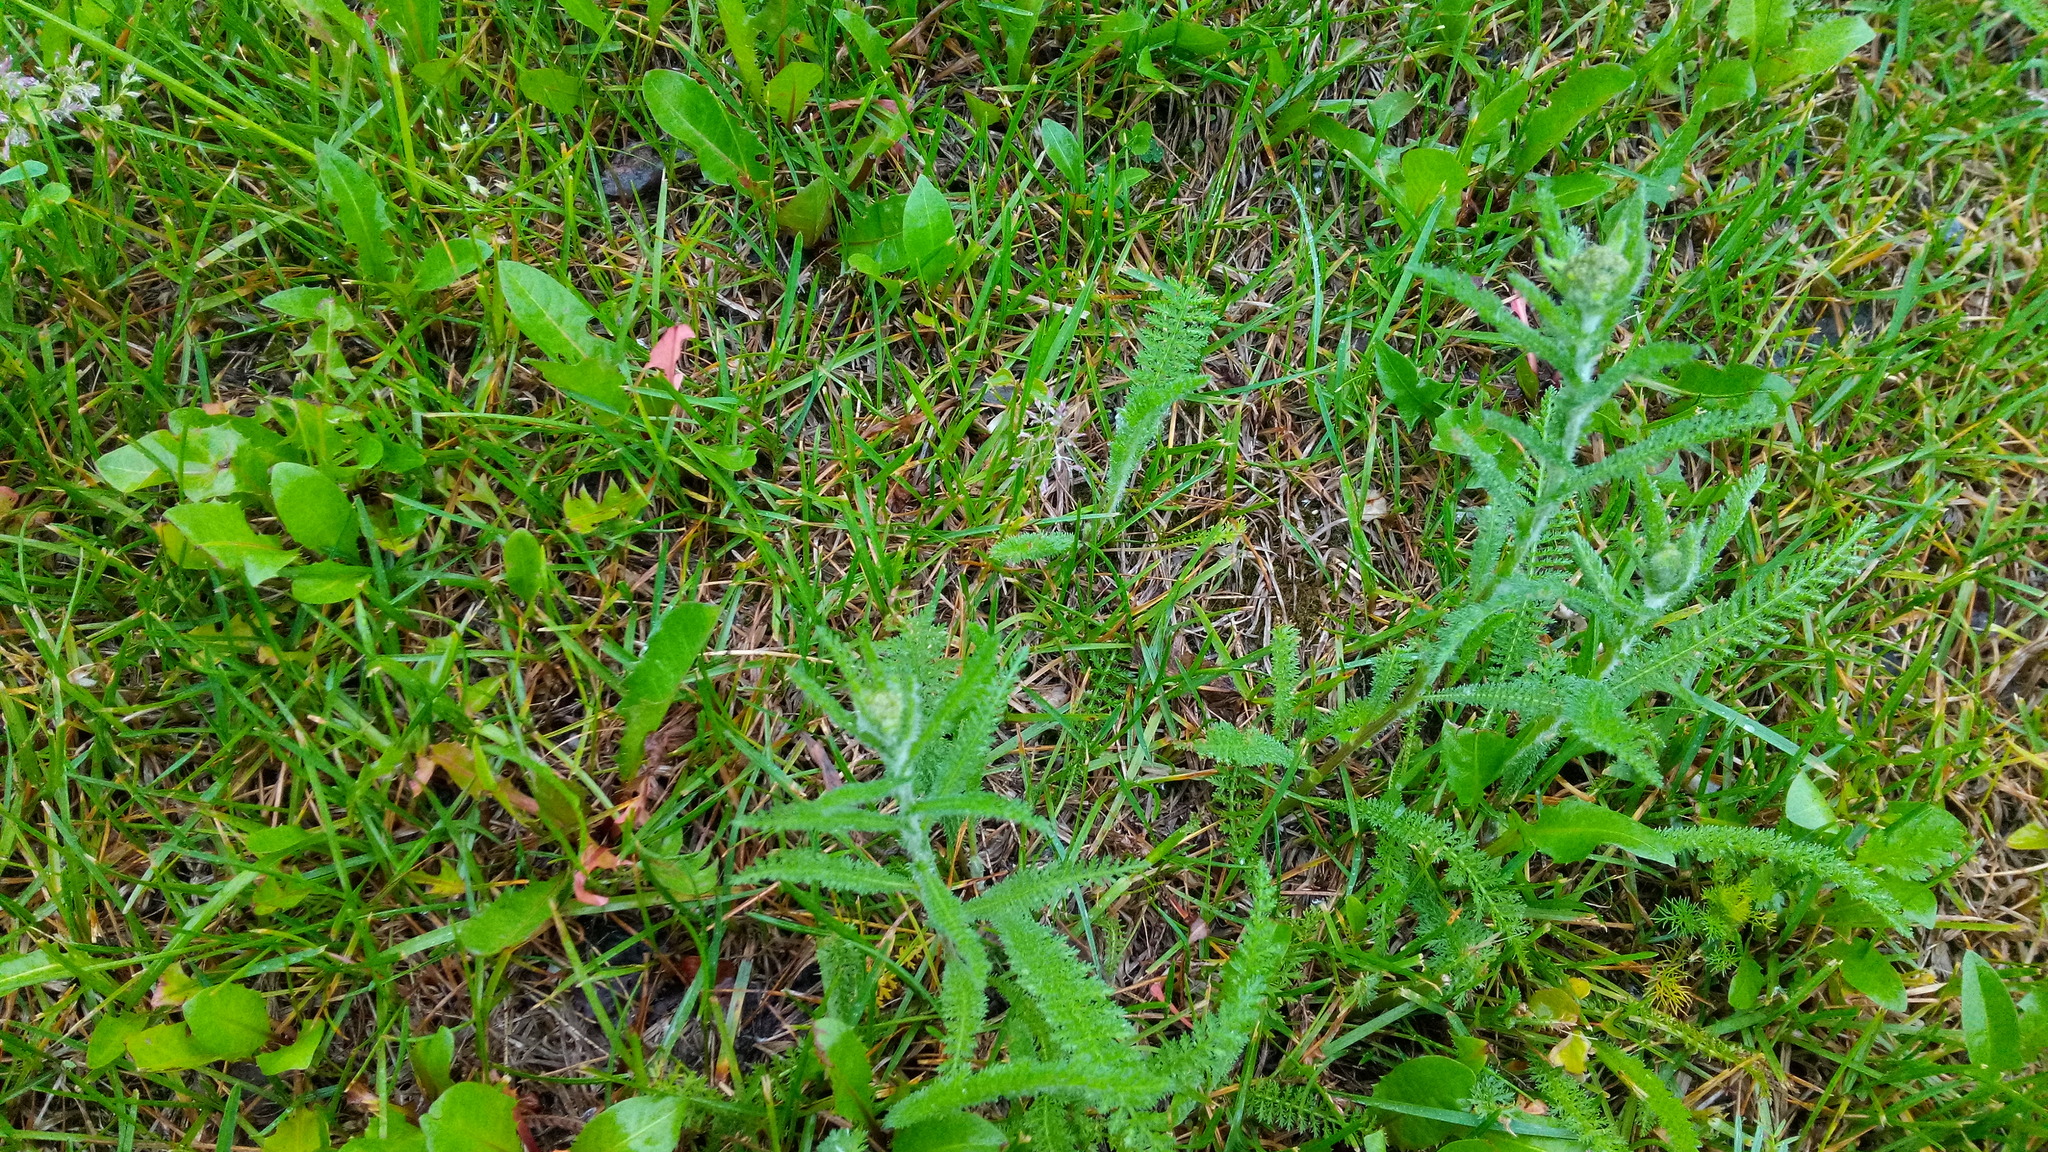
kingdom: Plantae
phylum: Tracheophyta
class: Magnoliopsida
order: Asterales
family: Asteraceae
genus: Achillea
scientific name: Achillea millefolium
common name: Yarrow
